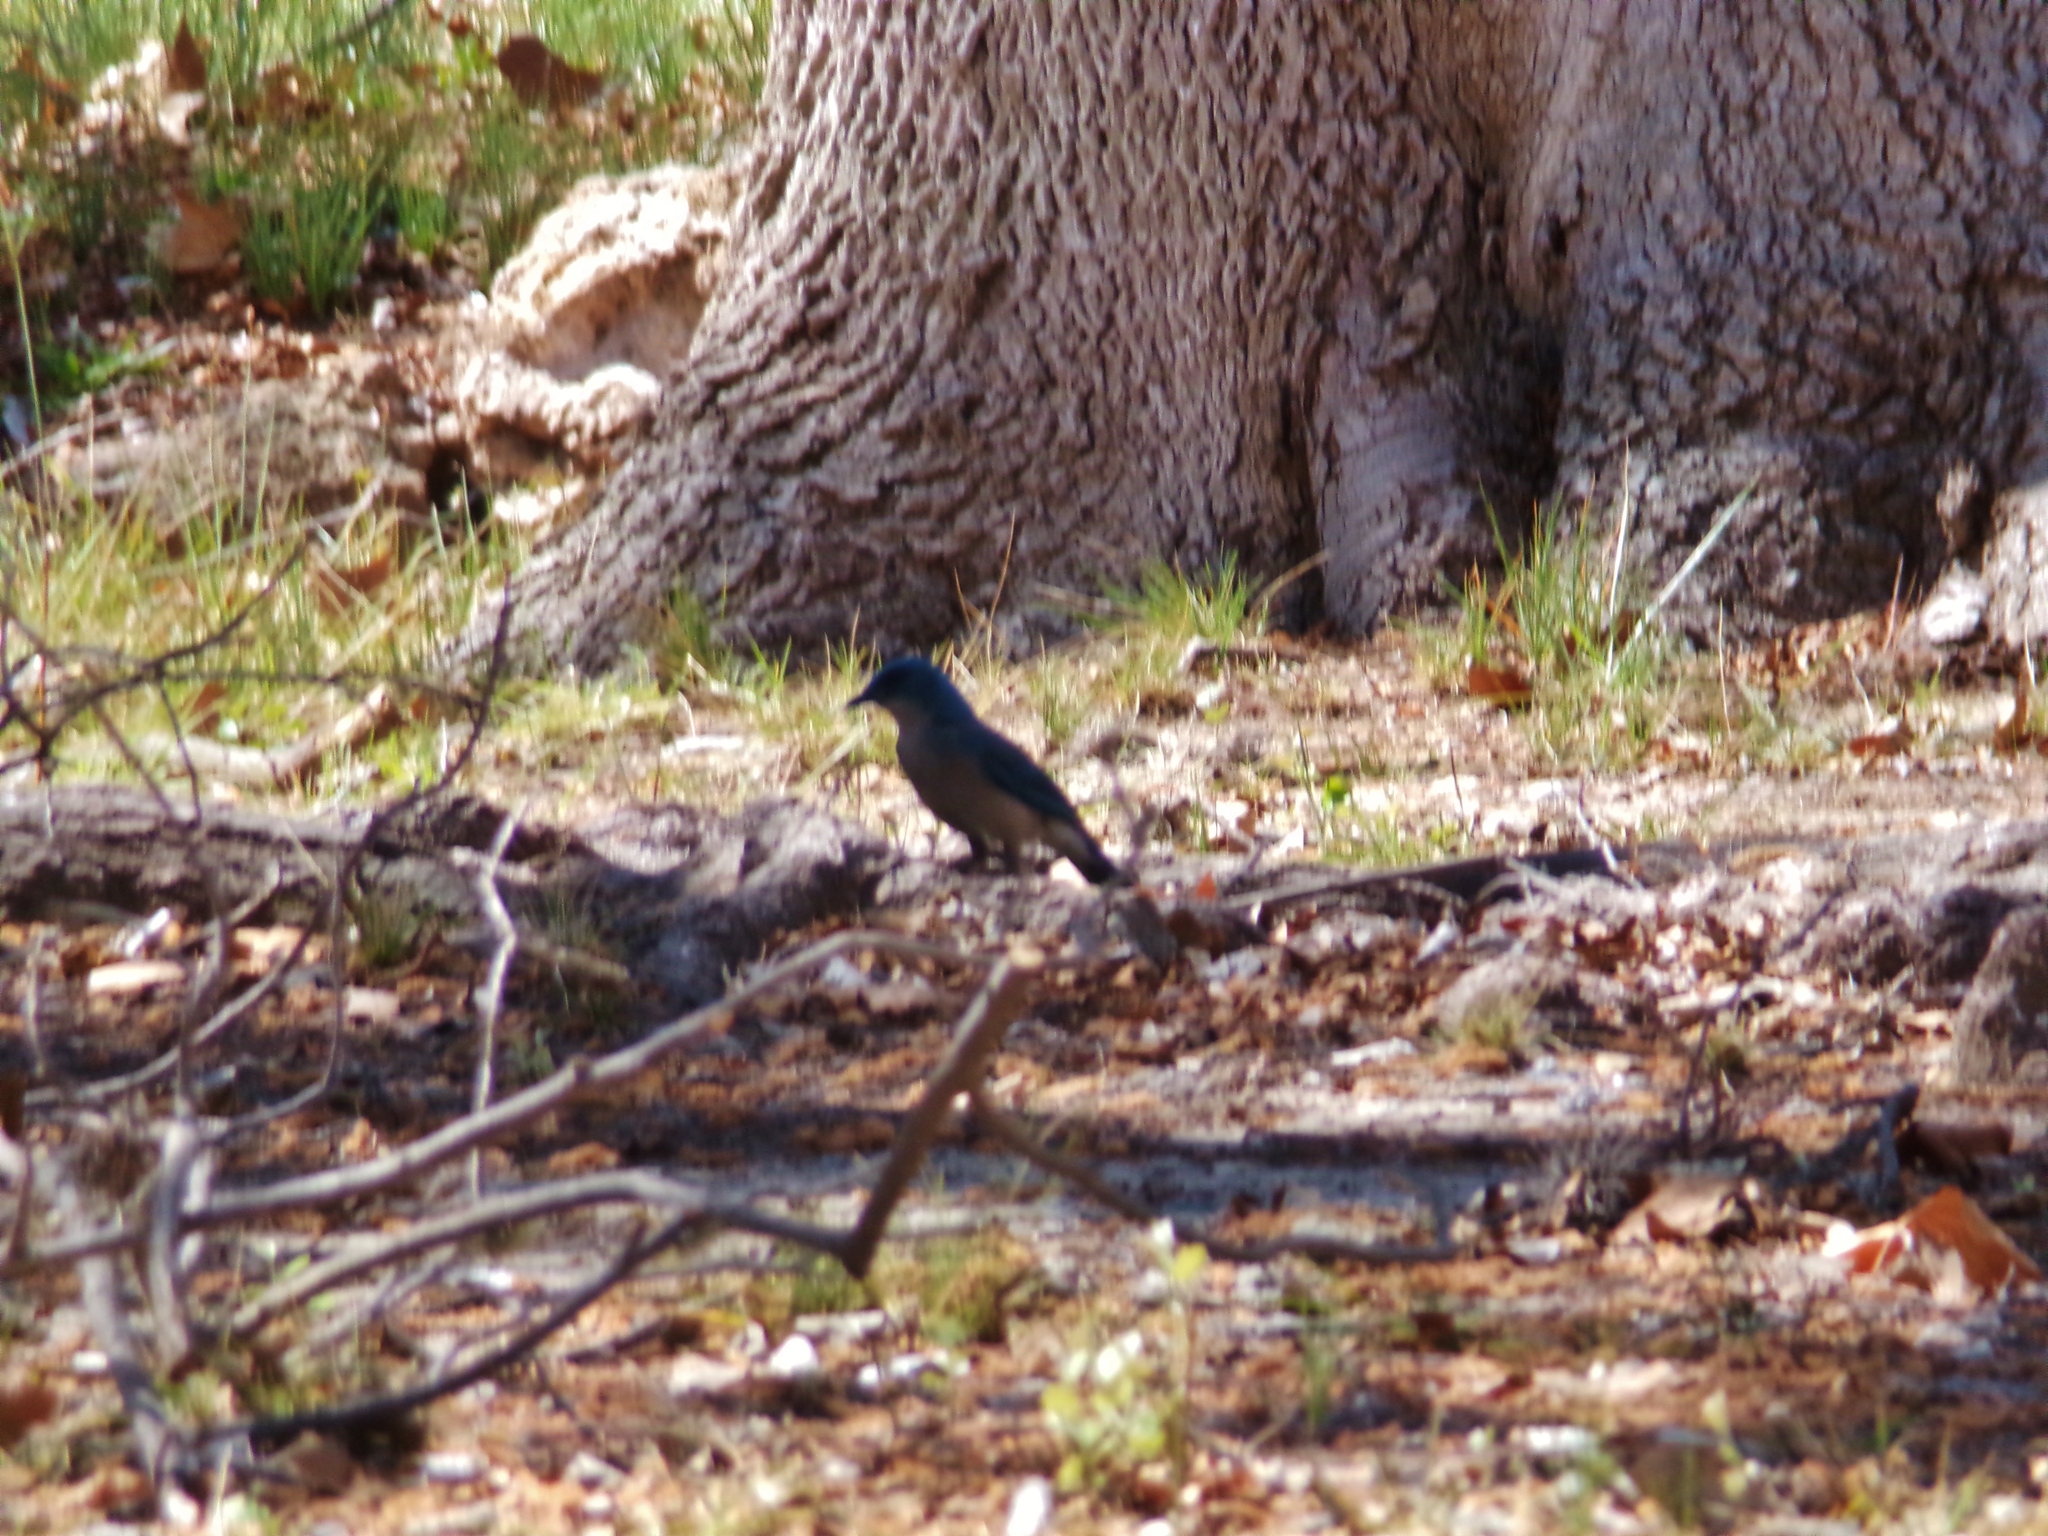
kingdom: Animalia
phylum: Chordata
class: Aves
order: Passeriformes
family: Corvidae
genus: Aphelocoma
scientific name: Aphelocoma wollweberi
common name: Mexican jay
